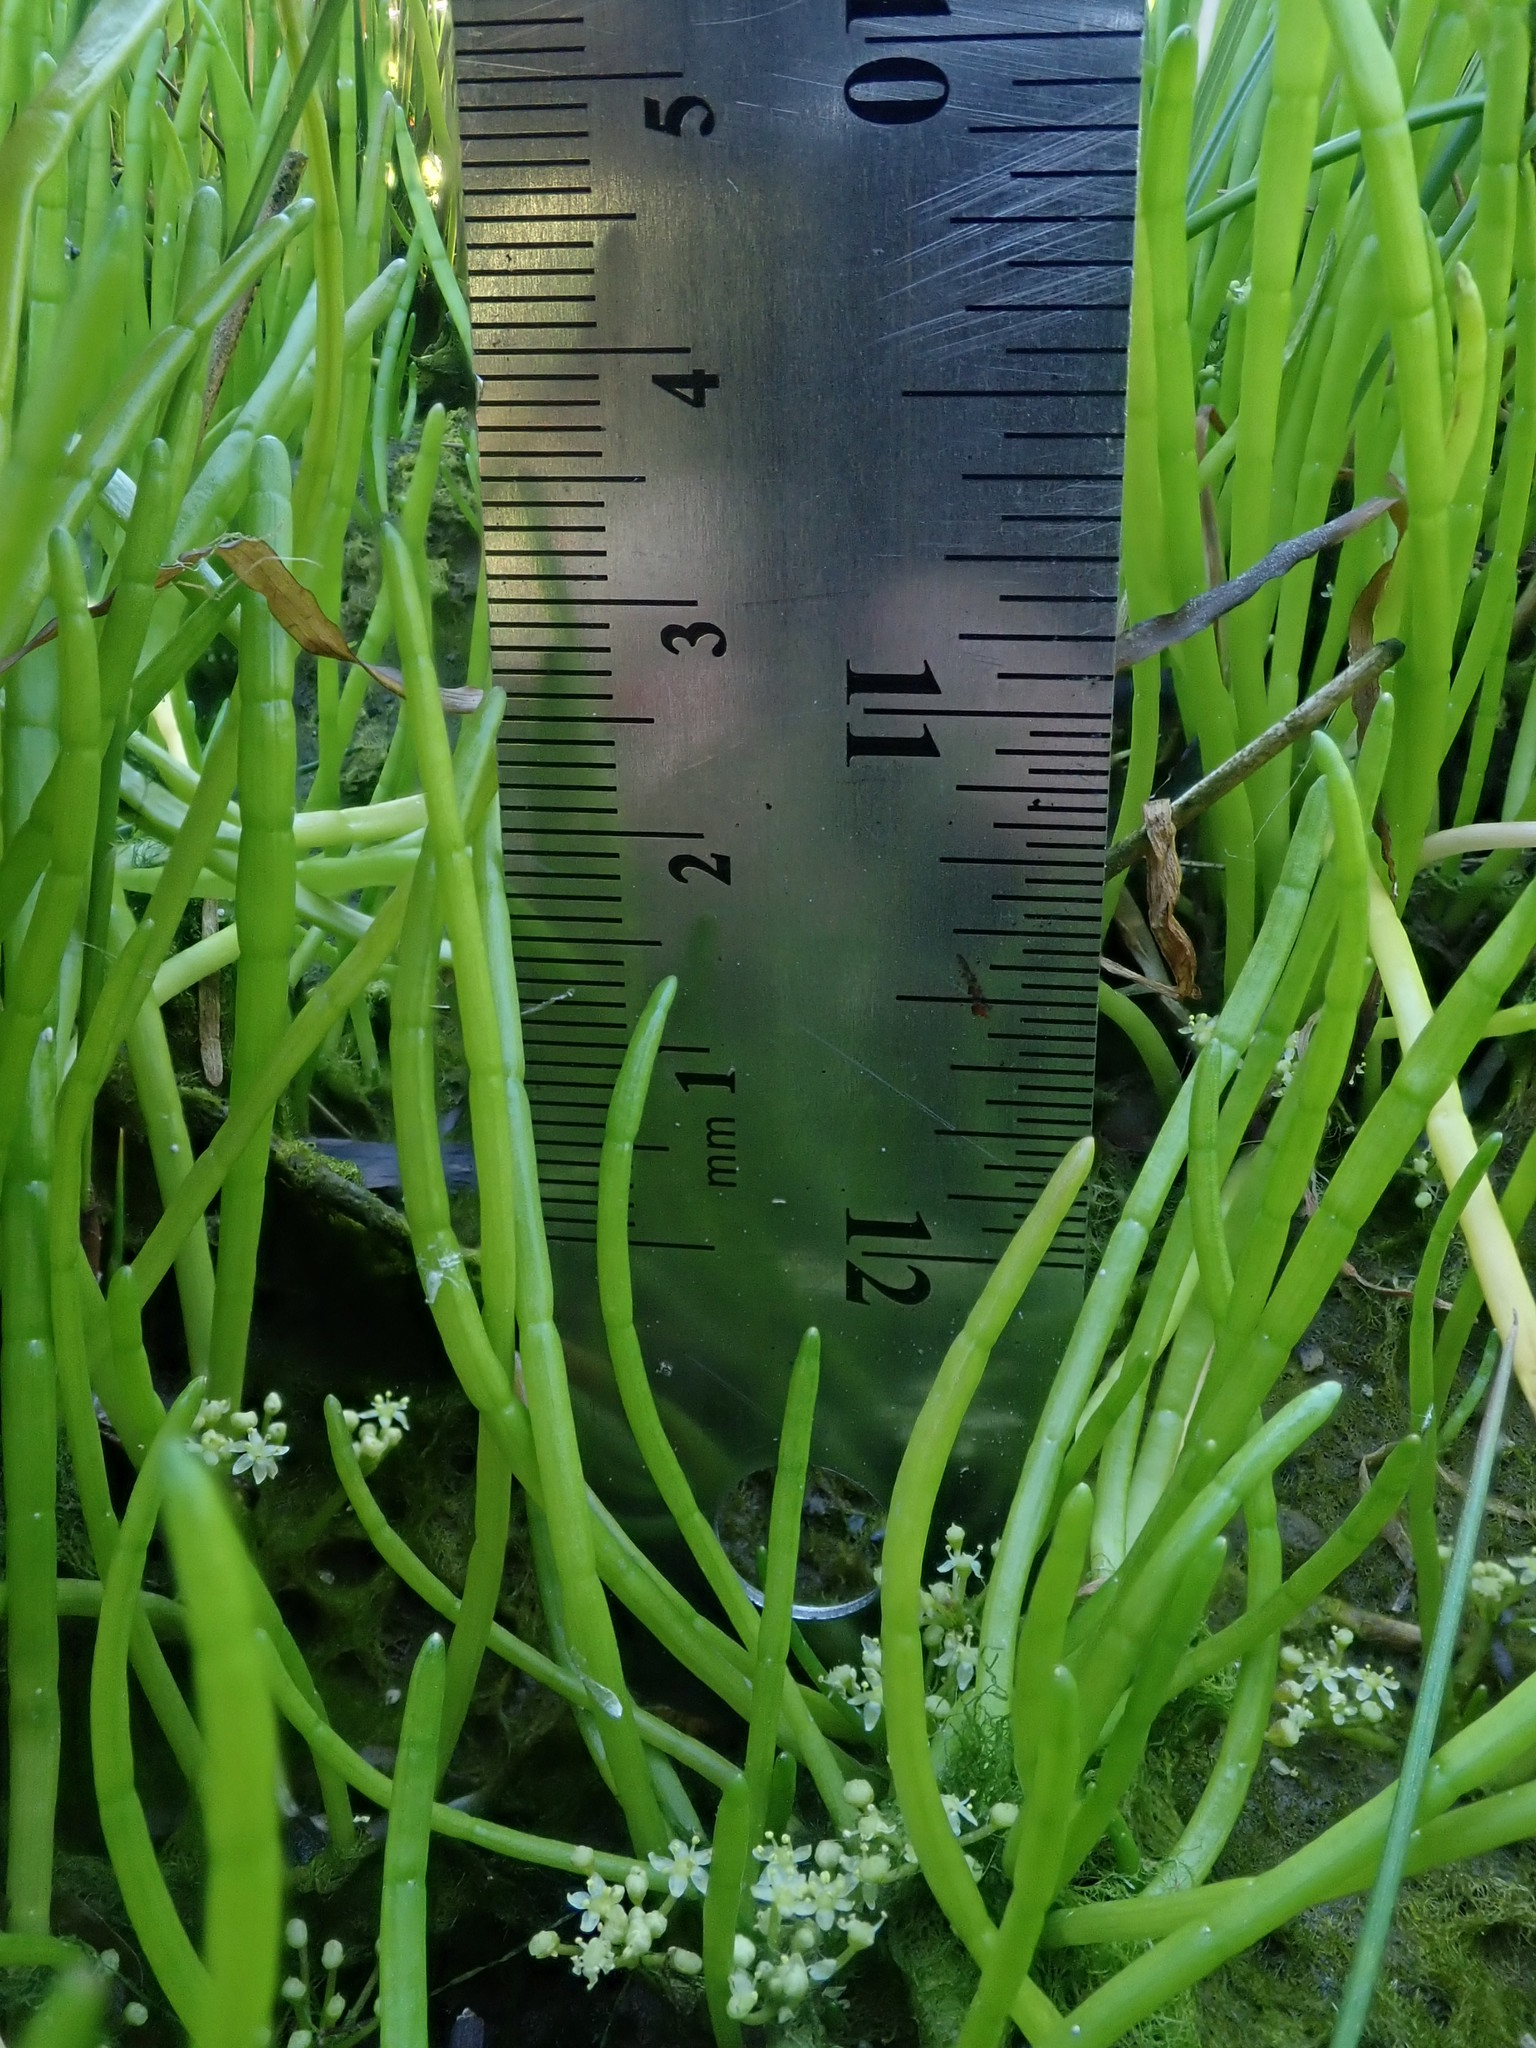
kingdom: Plantae
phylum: Tracheophyta
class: Magnoliopsida
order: Apiales
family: Apiaceae
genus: Lilaeopsis
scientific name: Lilaeopsis occidentalis
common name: Western grasswort
